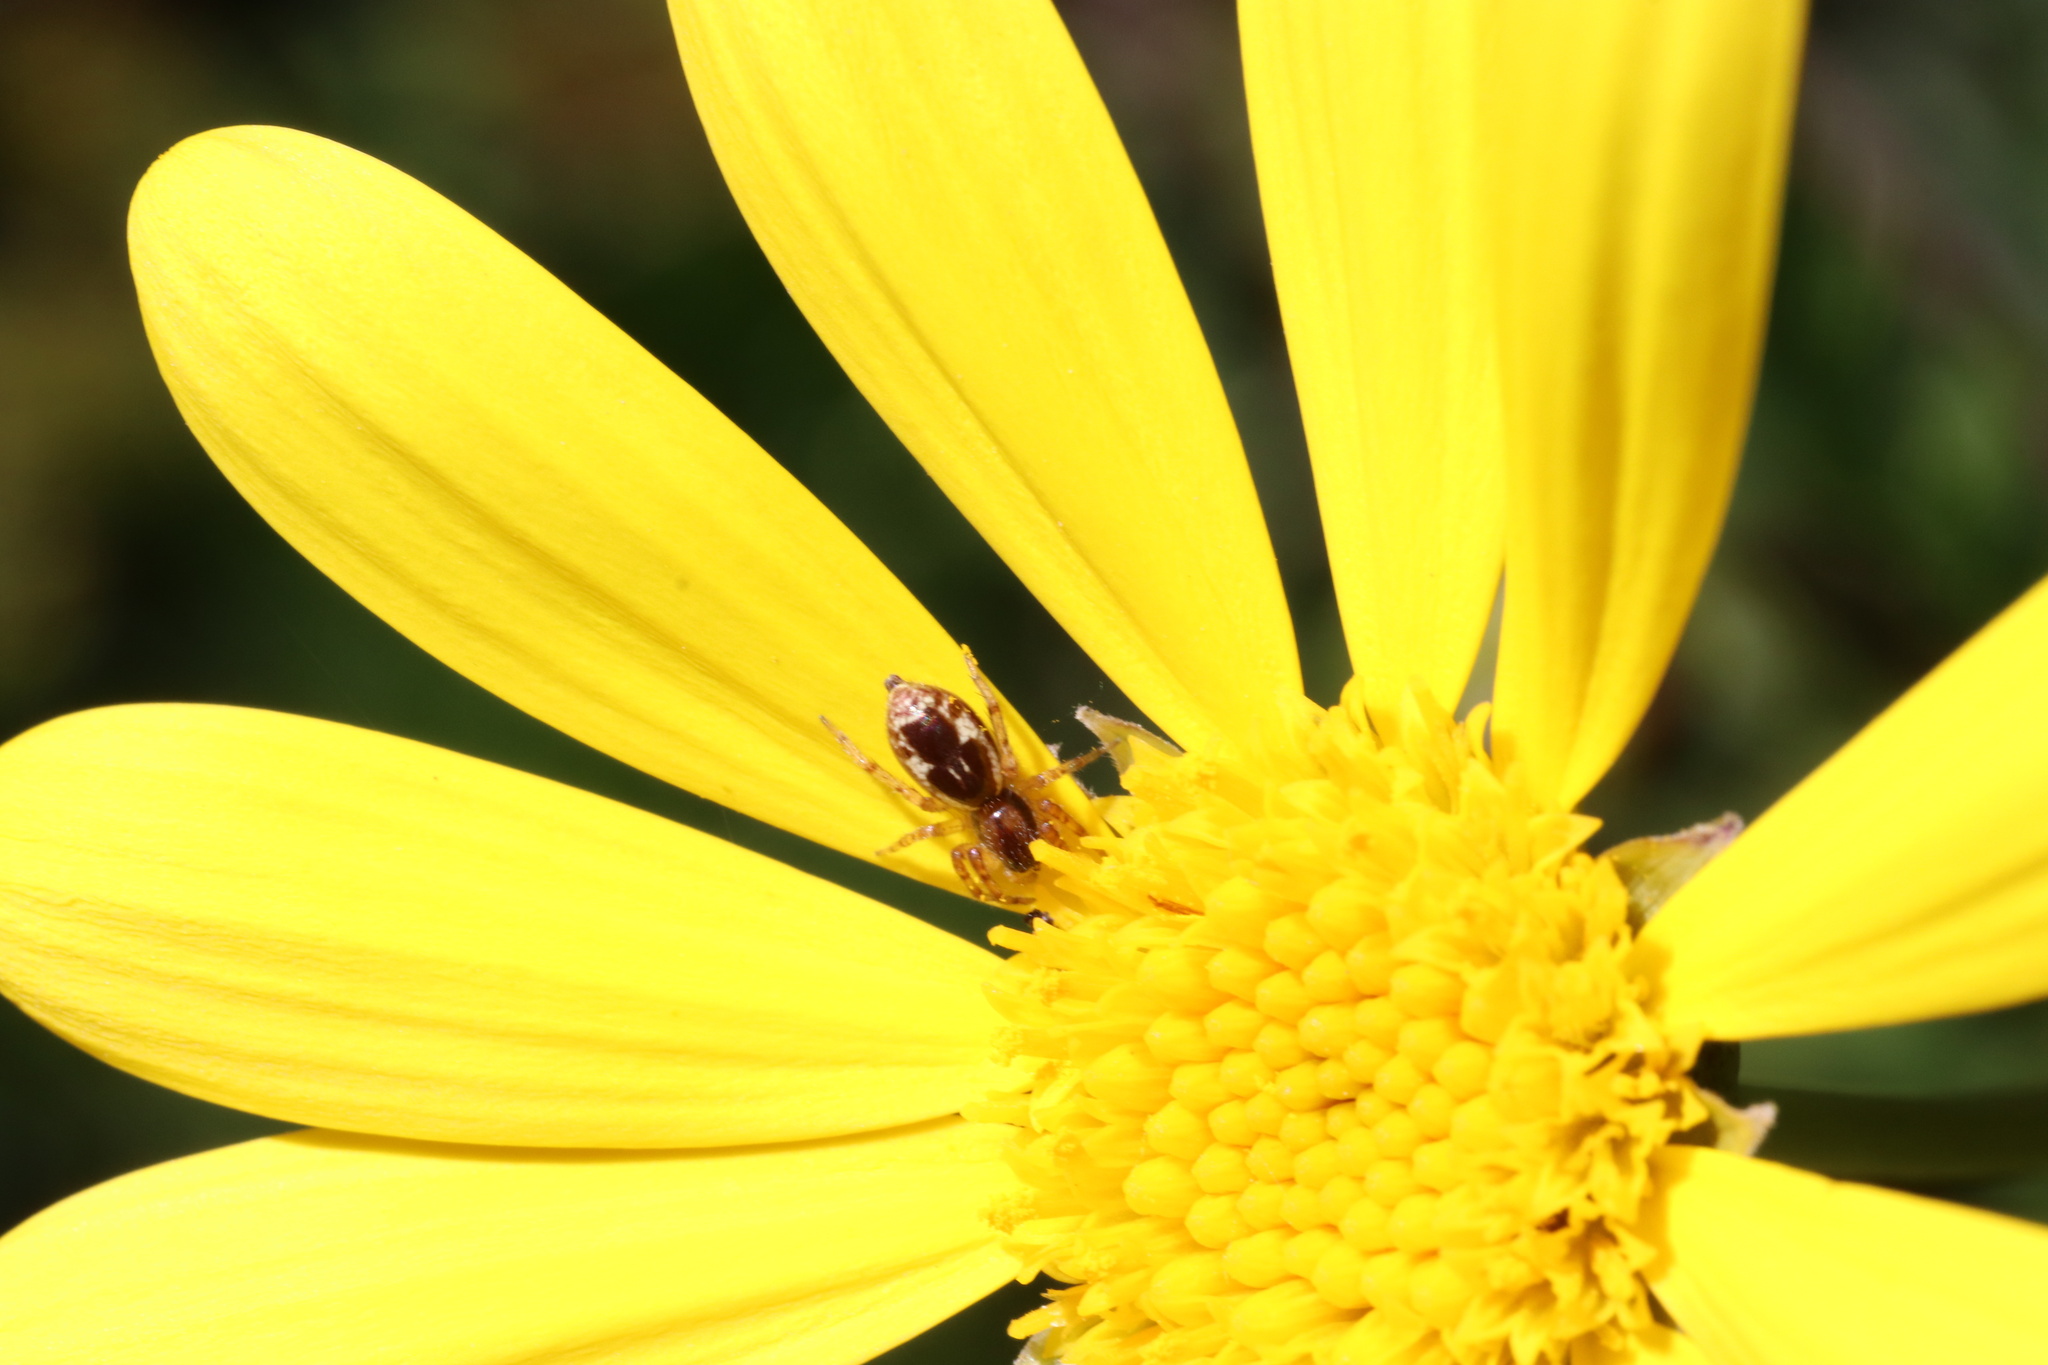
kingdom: Animalia
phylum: Arthropoda
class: Arachnida
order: Araneae
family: Anyphaenidae
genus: Philisca
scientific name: Philisca atrata
